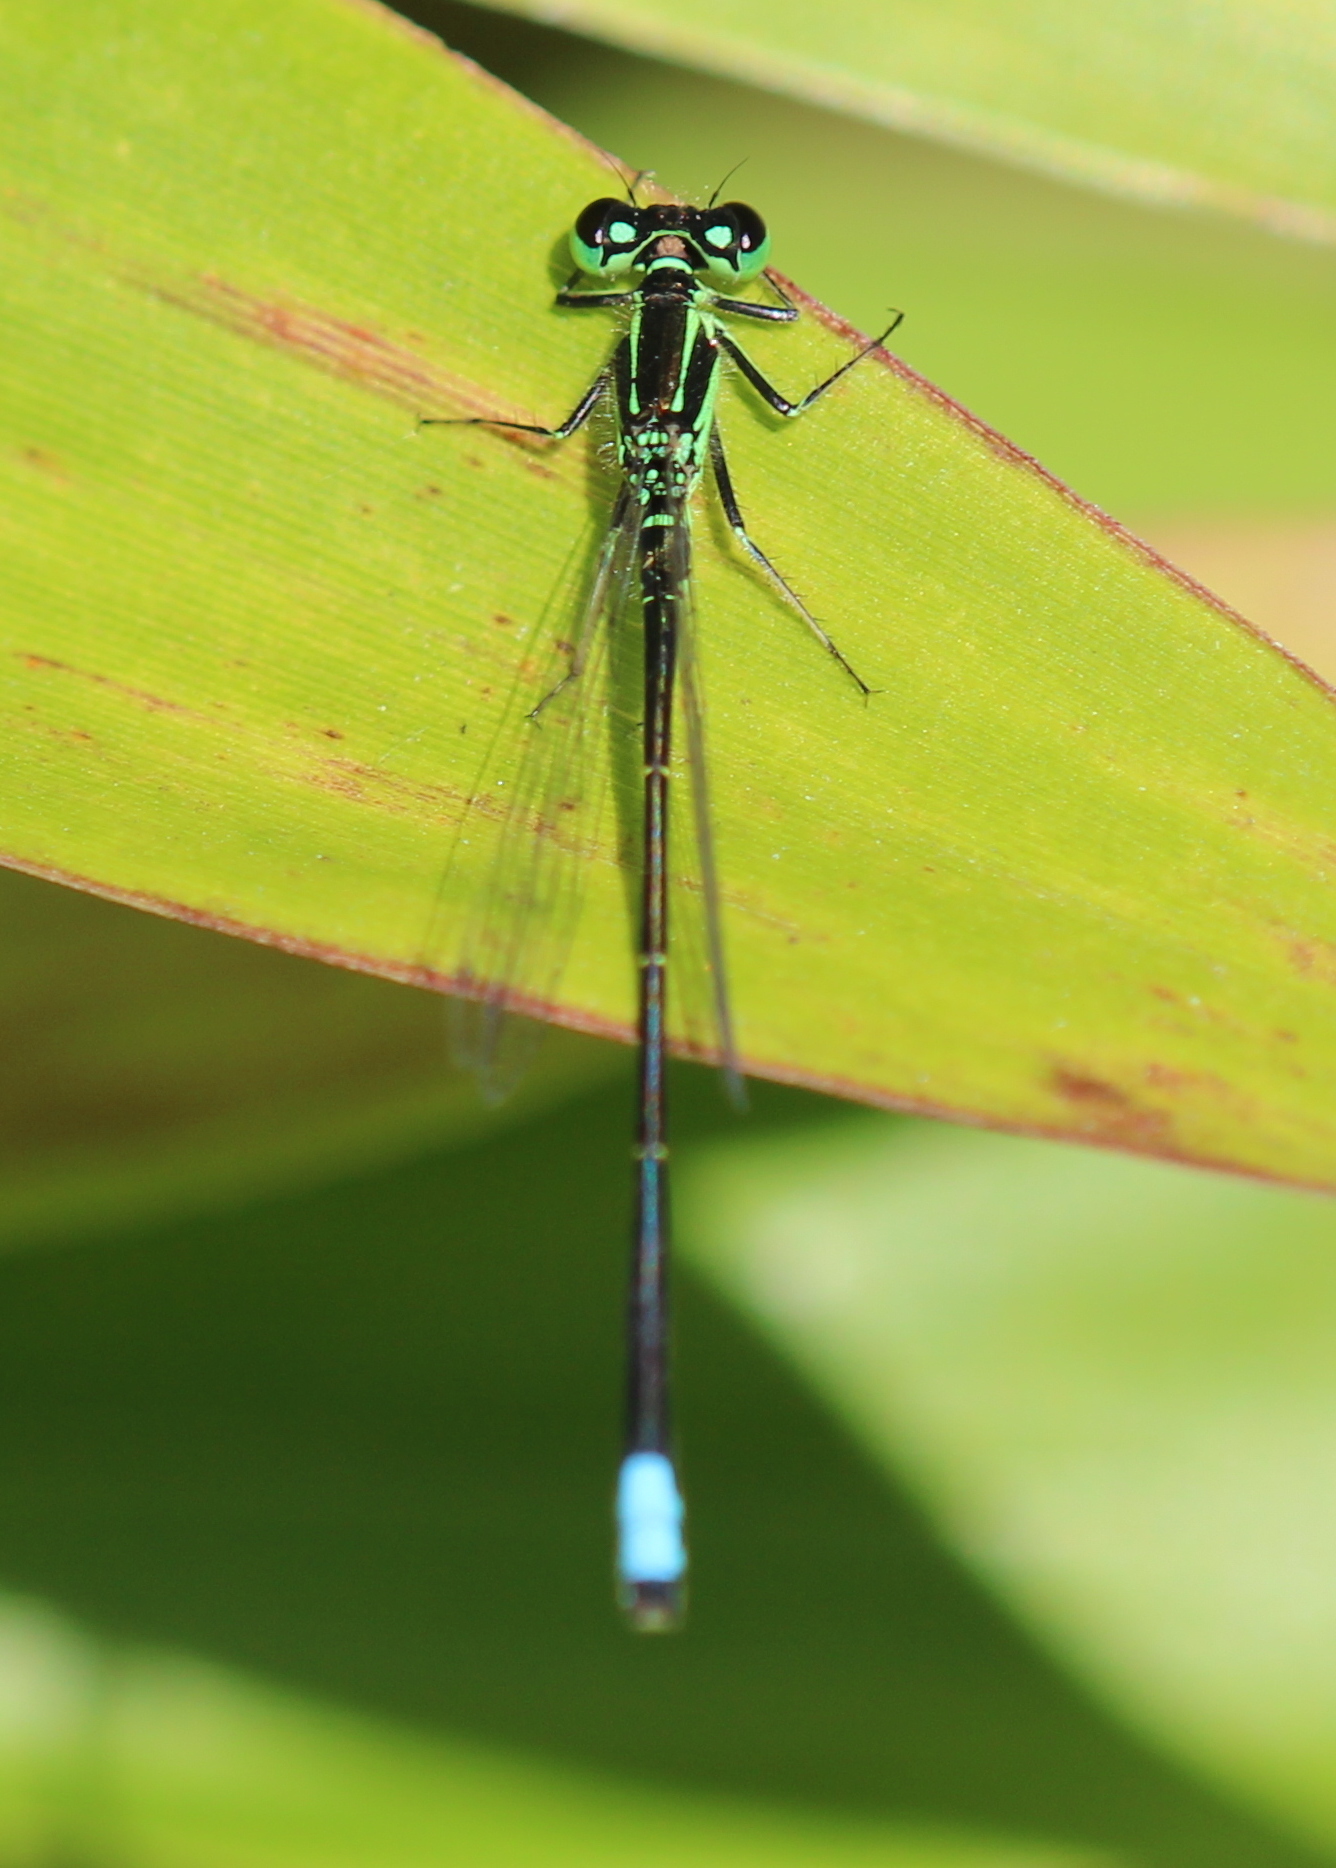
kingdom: Animalia
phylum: Arthropoda
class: Insecta
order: Odonata
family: Coenagrionidae
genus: Ischnura
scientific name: Ischnura verticalis
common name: Eastern forktail
